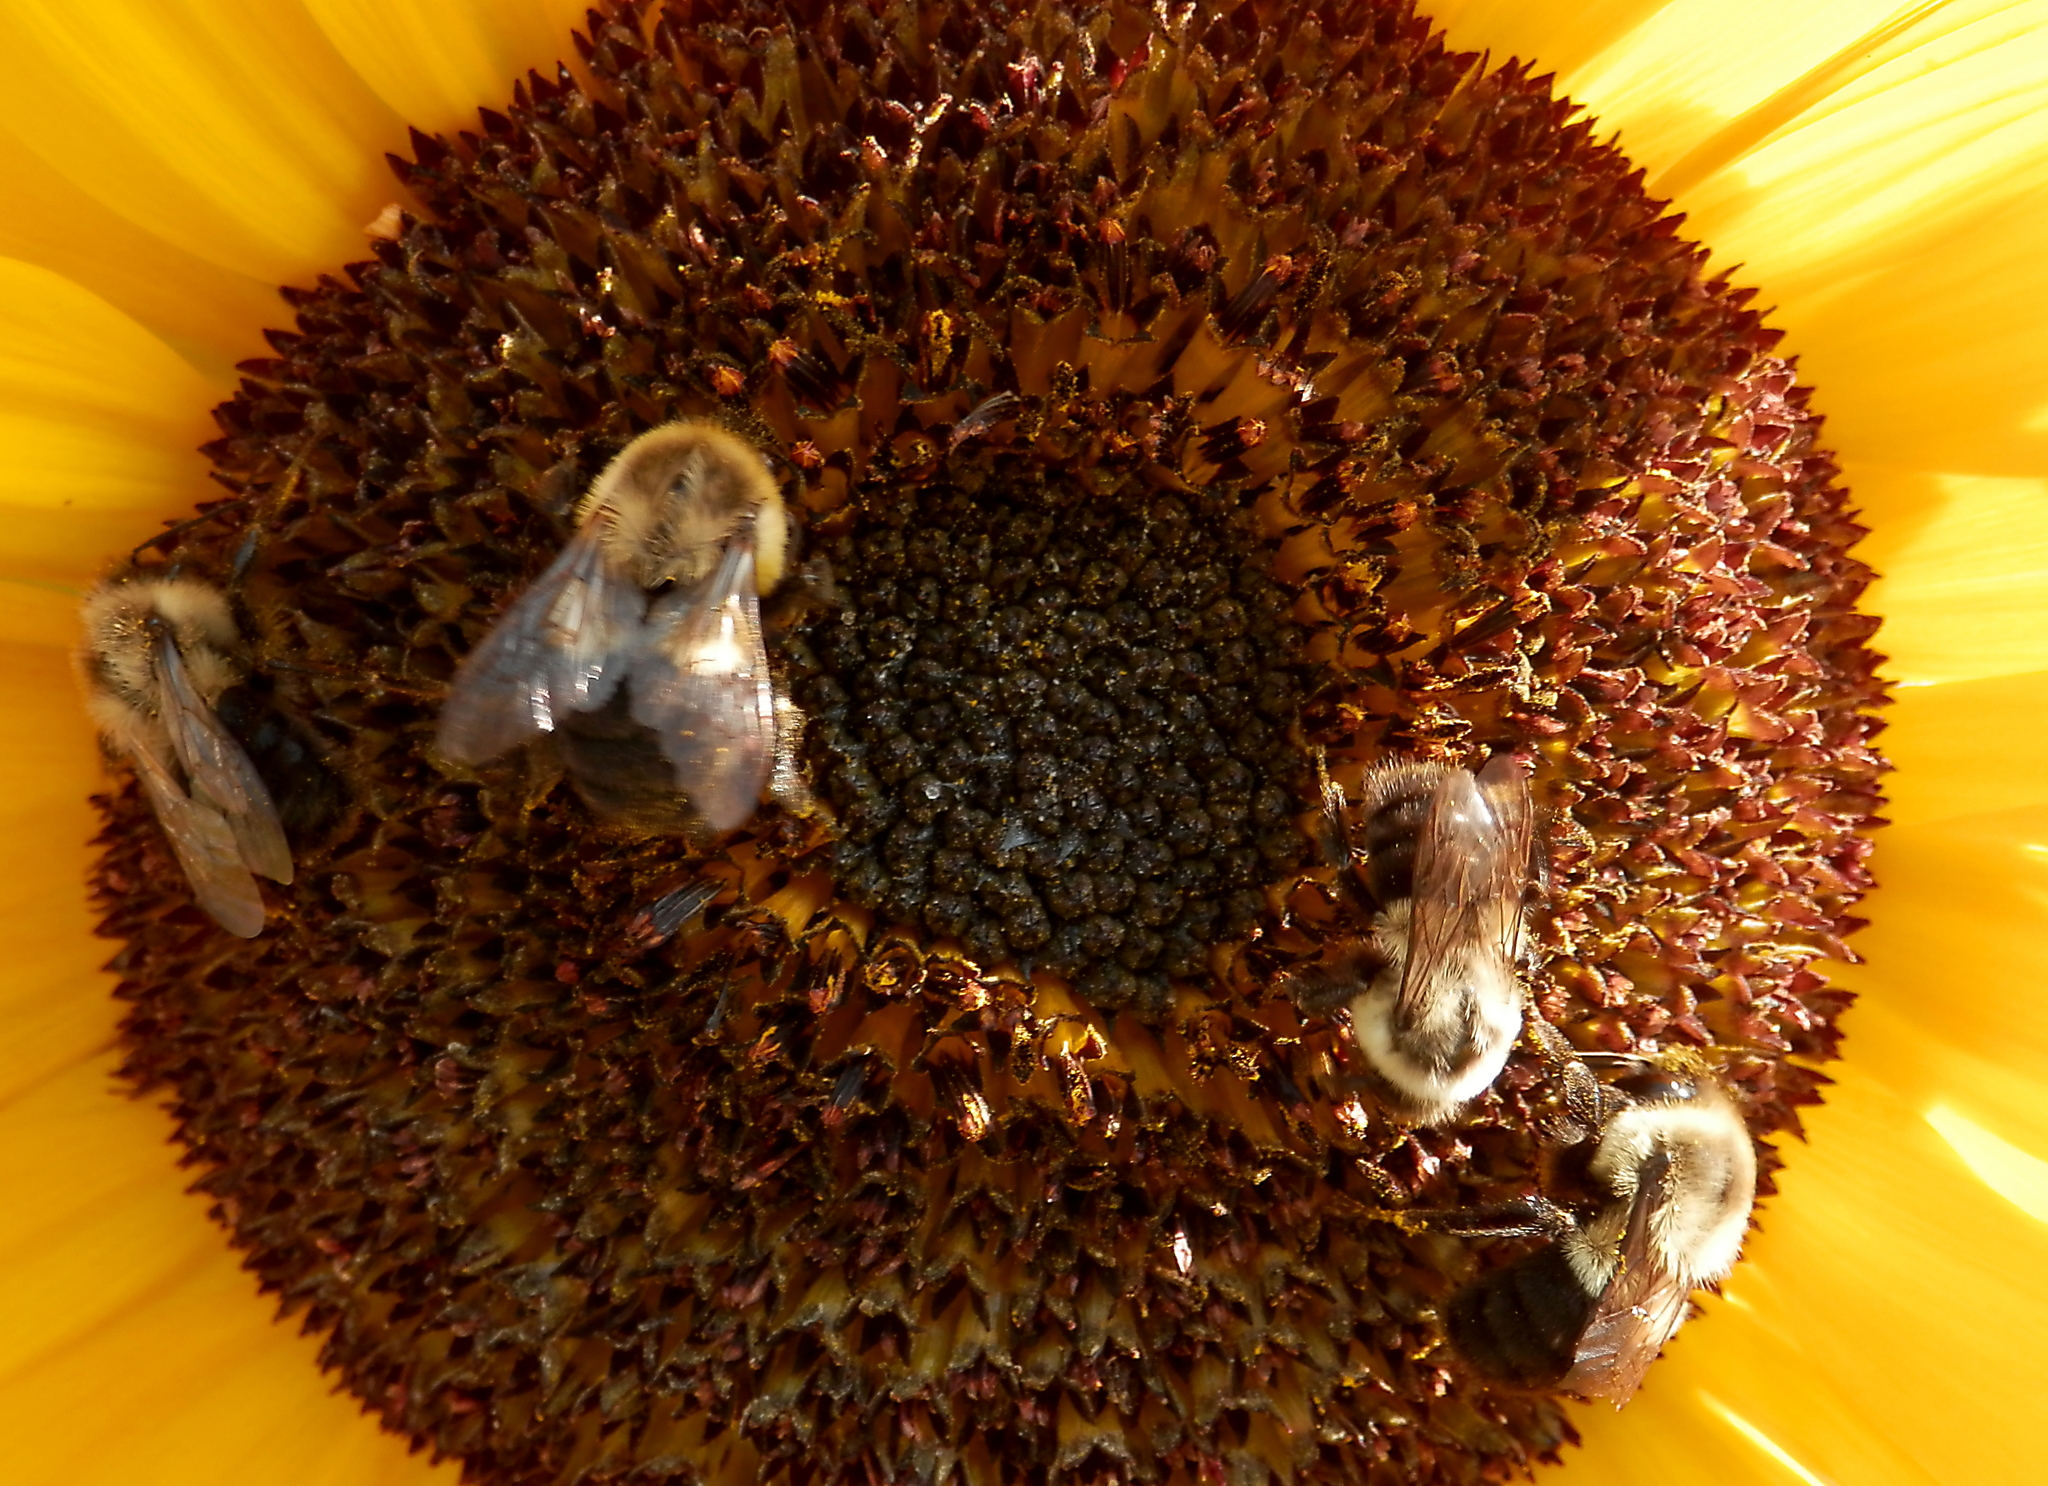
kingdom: Animalia
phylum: Arthropoda
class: Insecta
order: Hymenoptera
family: Apidae
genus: Bombus
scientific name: Bombus impatiens
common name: Common eastern bumble bee
